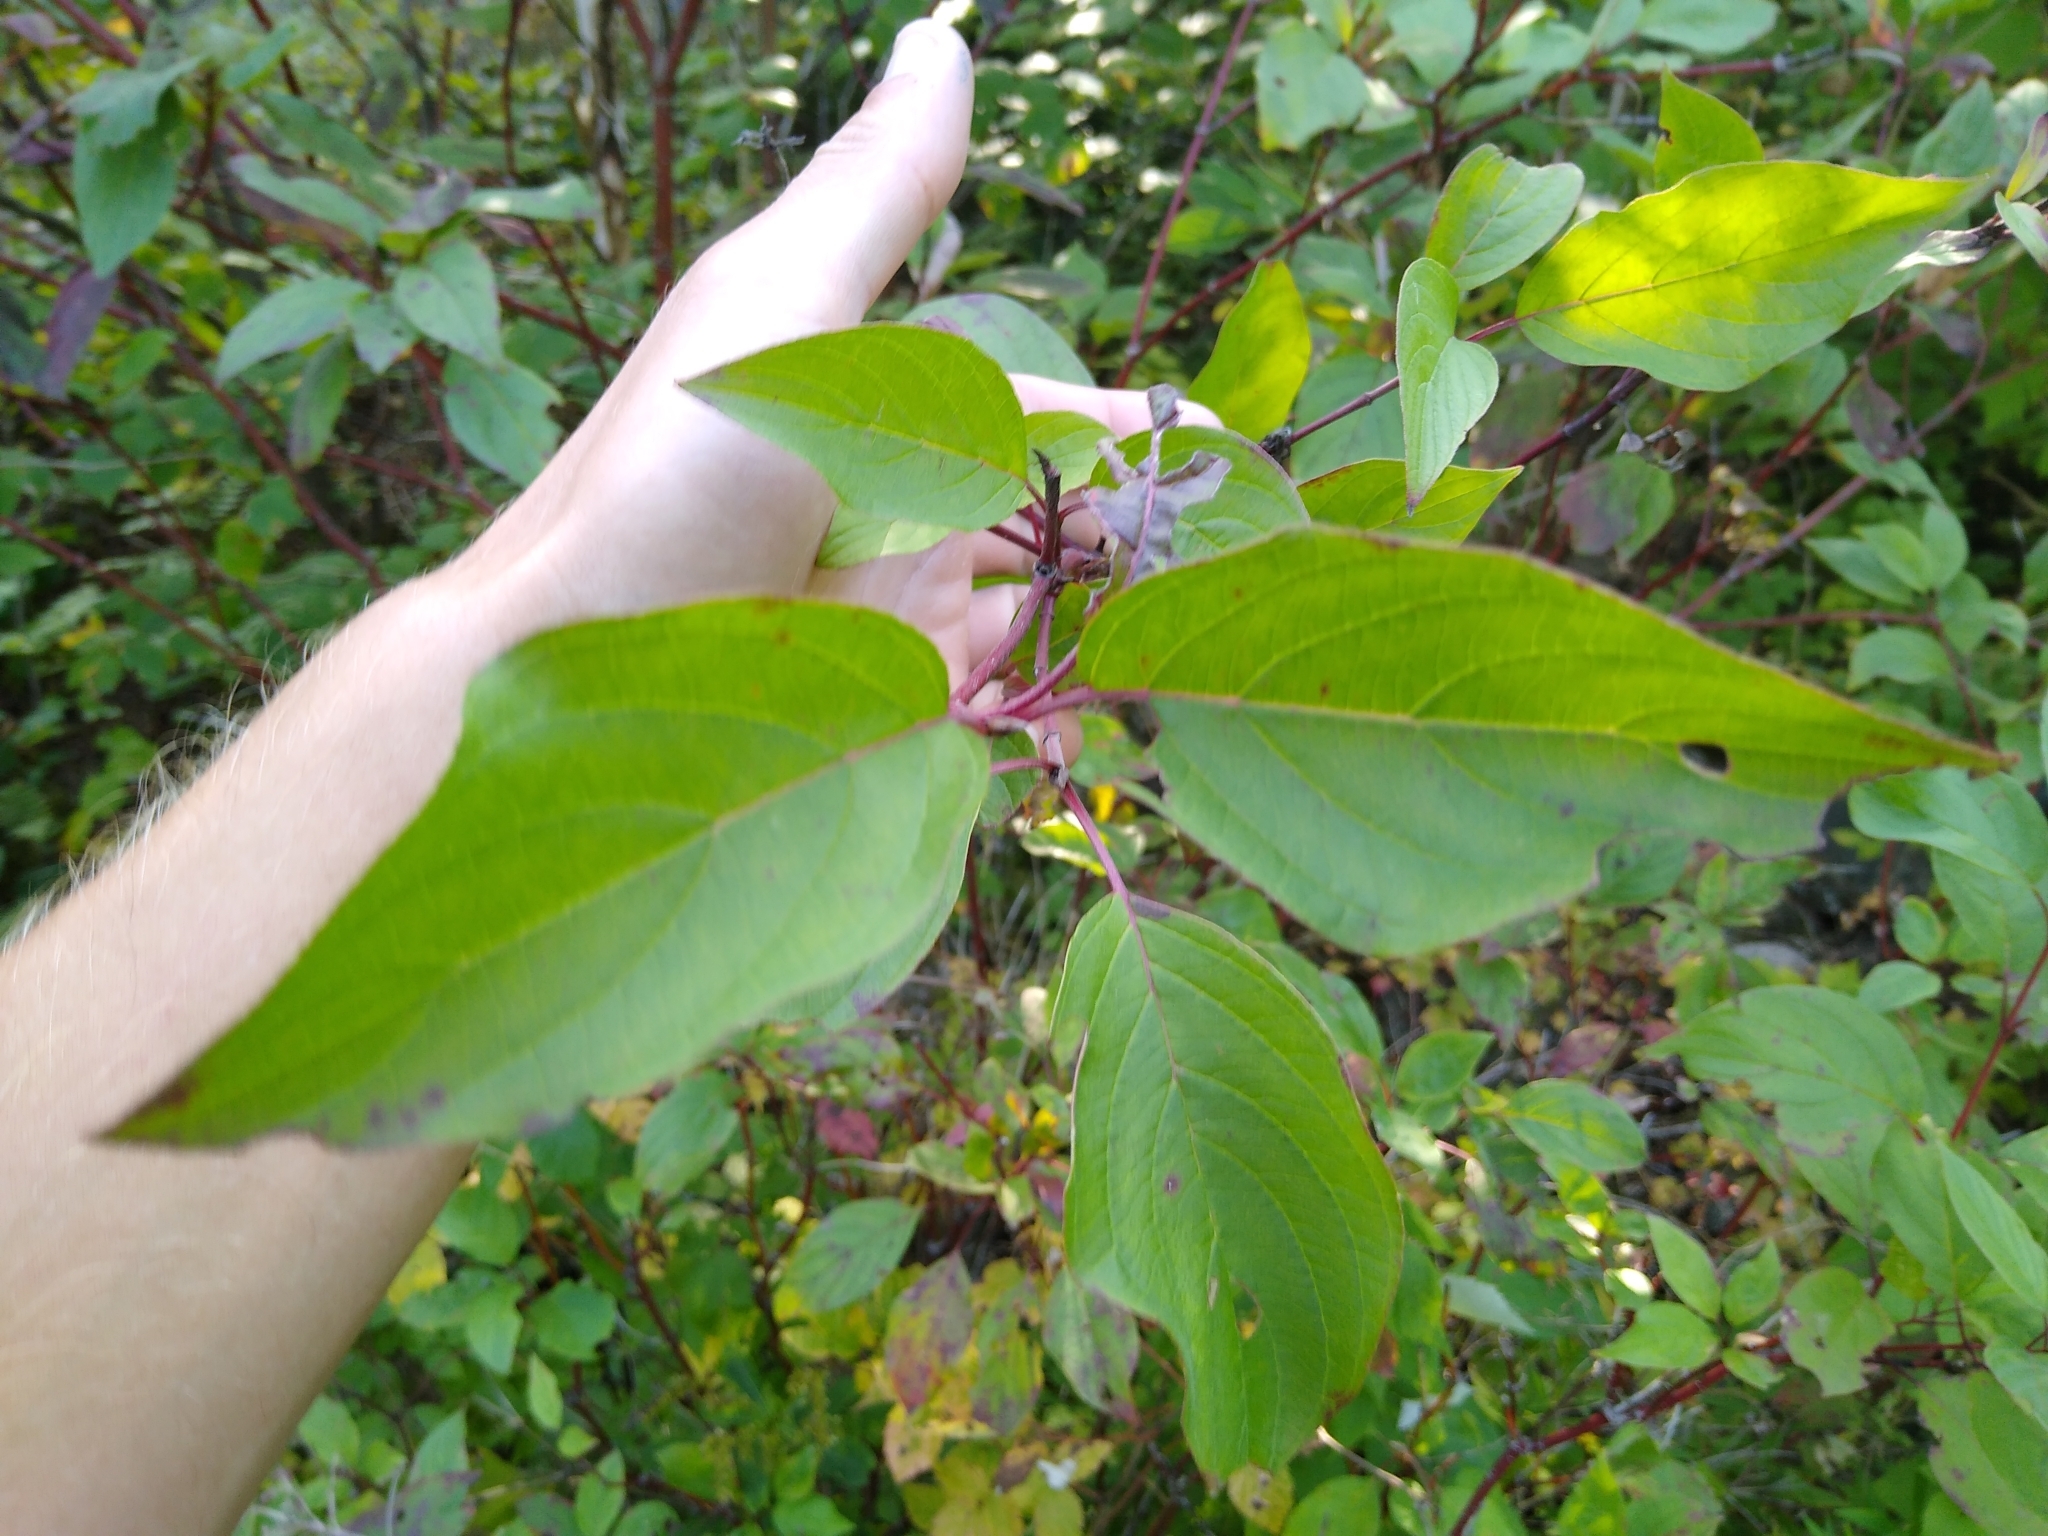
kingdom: Plantae
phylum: Tracheophyta
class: Magnoliopsida
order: Cornales
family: Cornaceae
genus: Cornus
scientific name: Cornus sericea
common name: Red-osier dogwood
